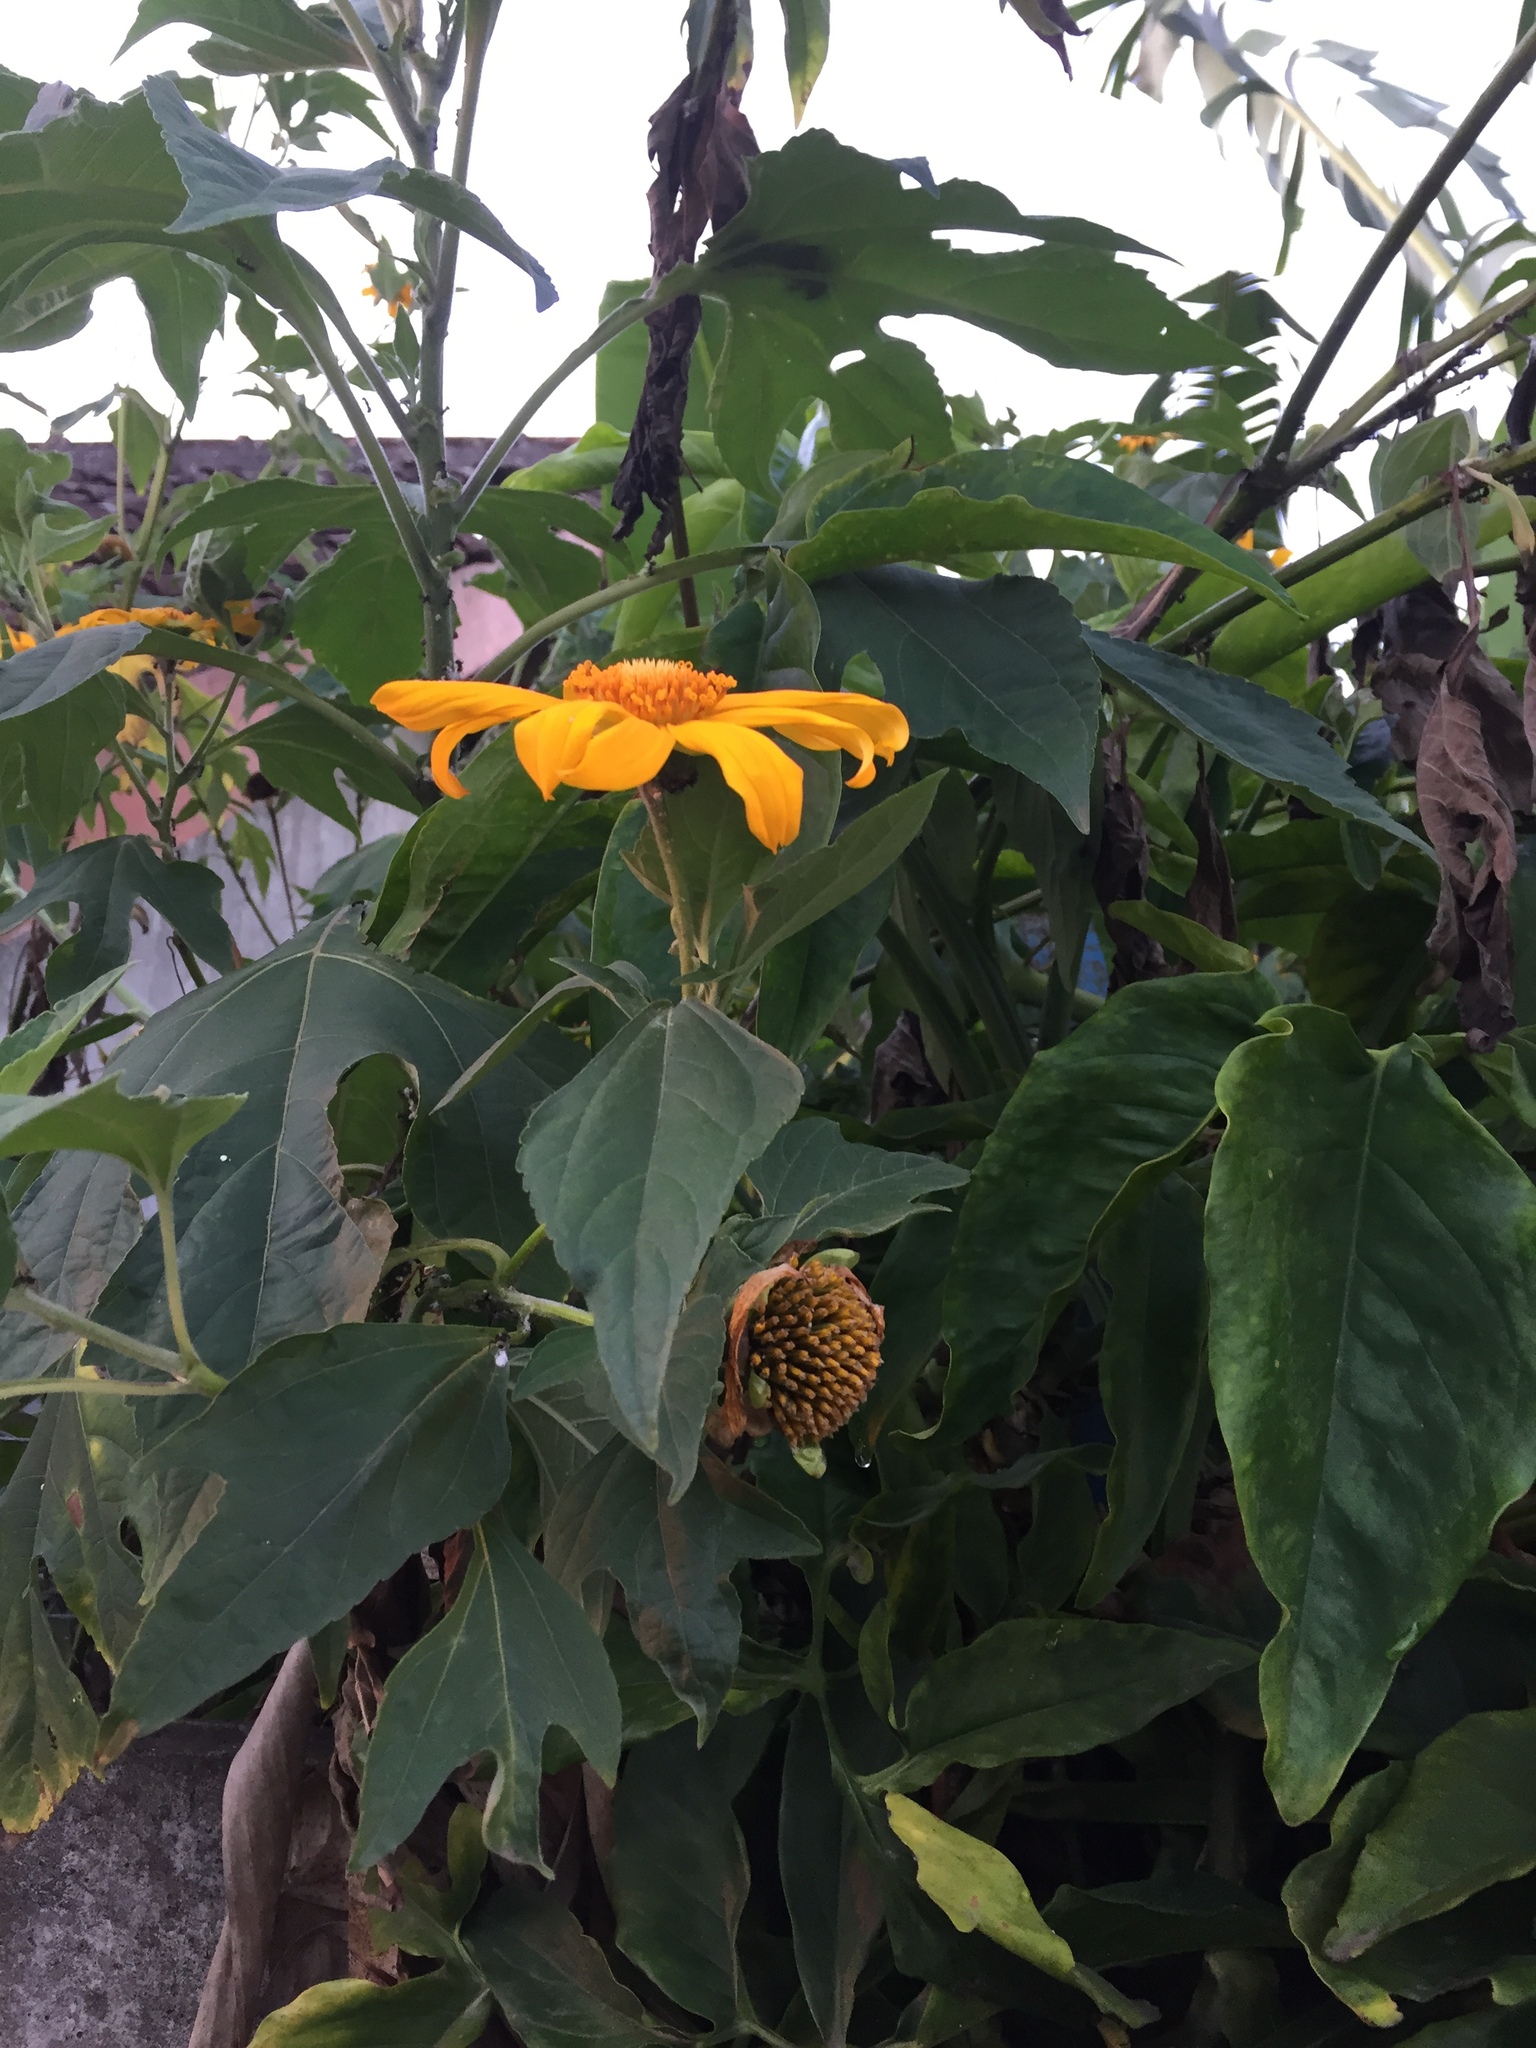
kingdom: Plantae
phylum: Tracheophyta
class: Magnoliopsida
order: Asterales
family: Asteraceae
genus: Tithonia
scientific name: Tithonia diversifolia
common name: Tree marigold
